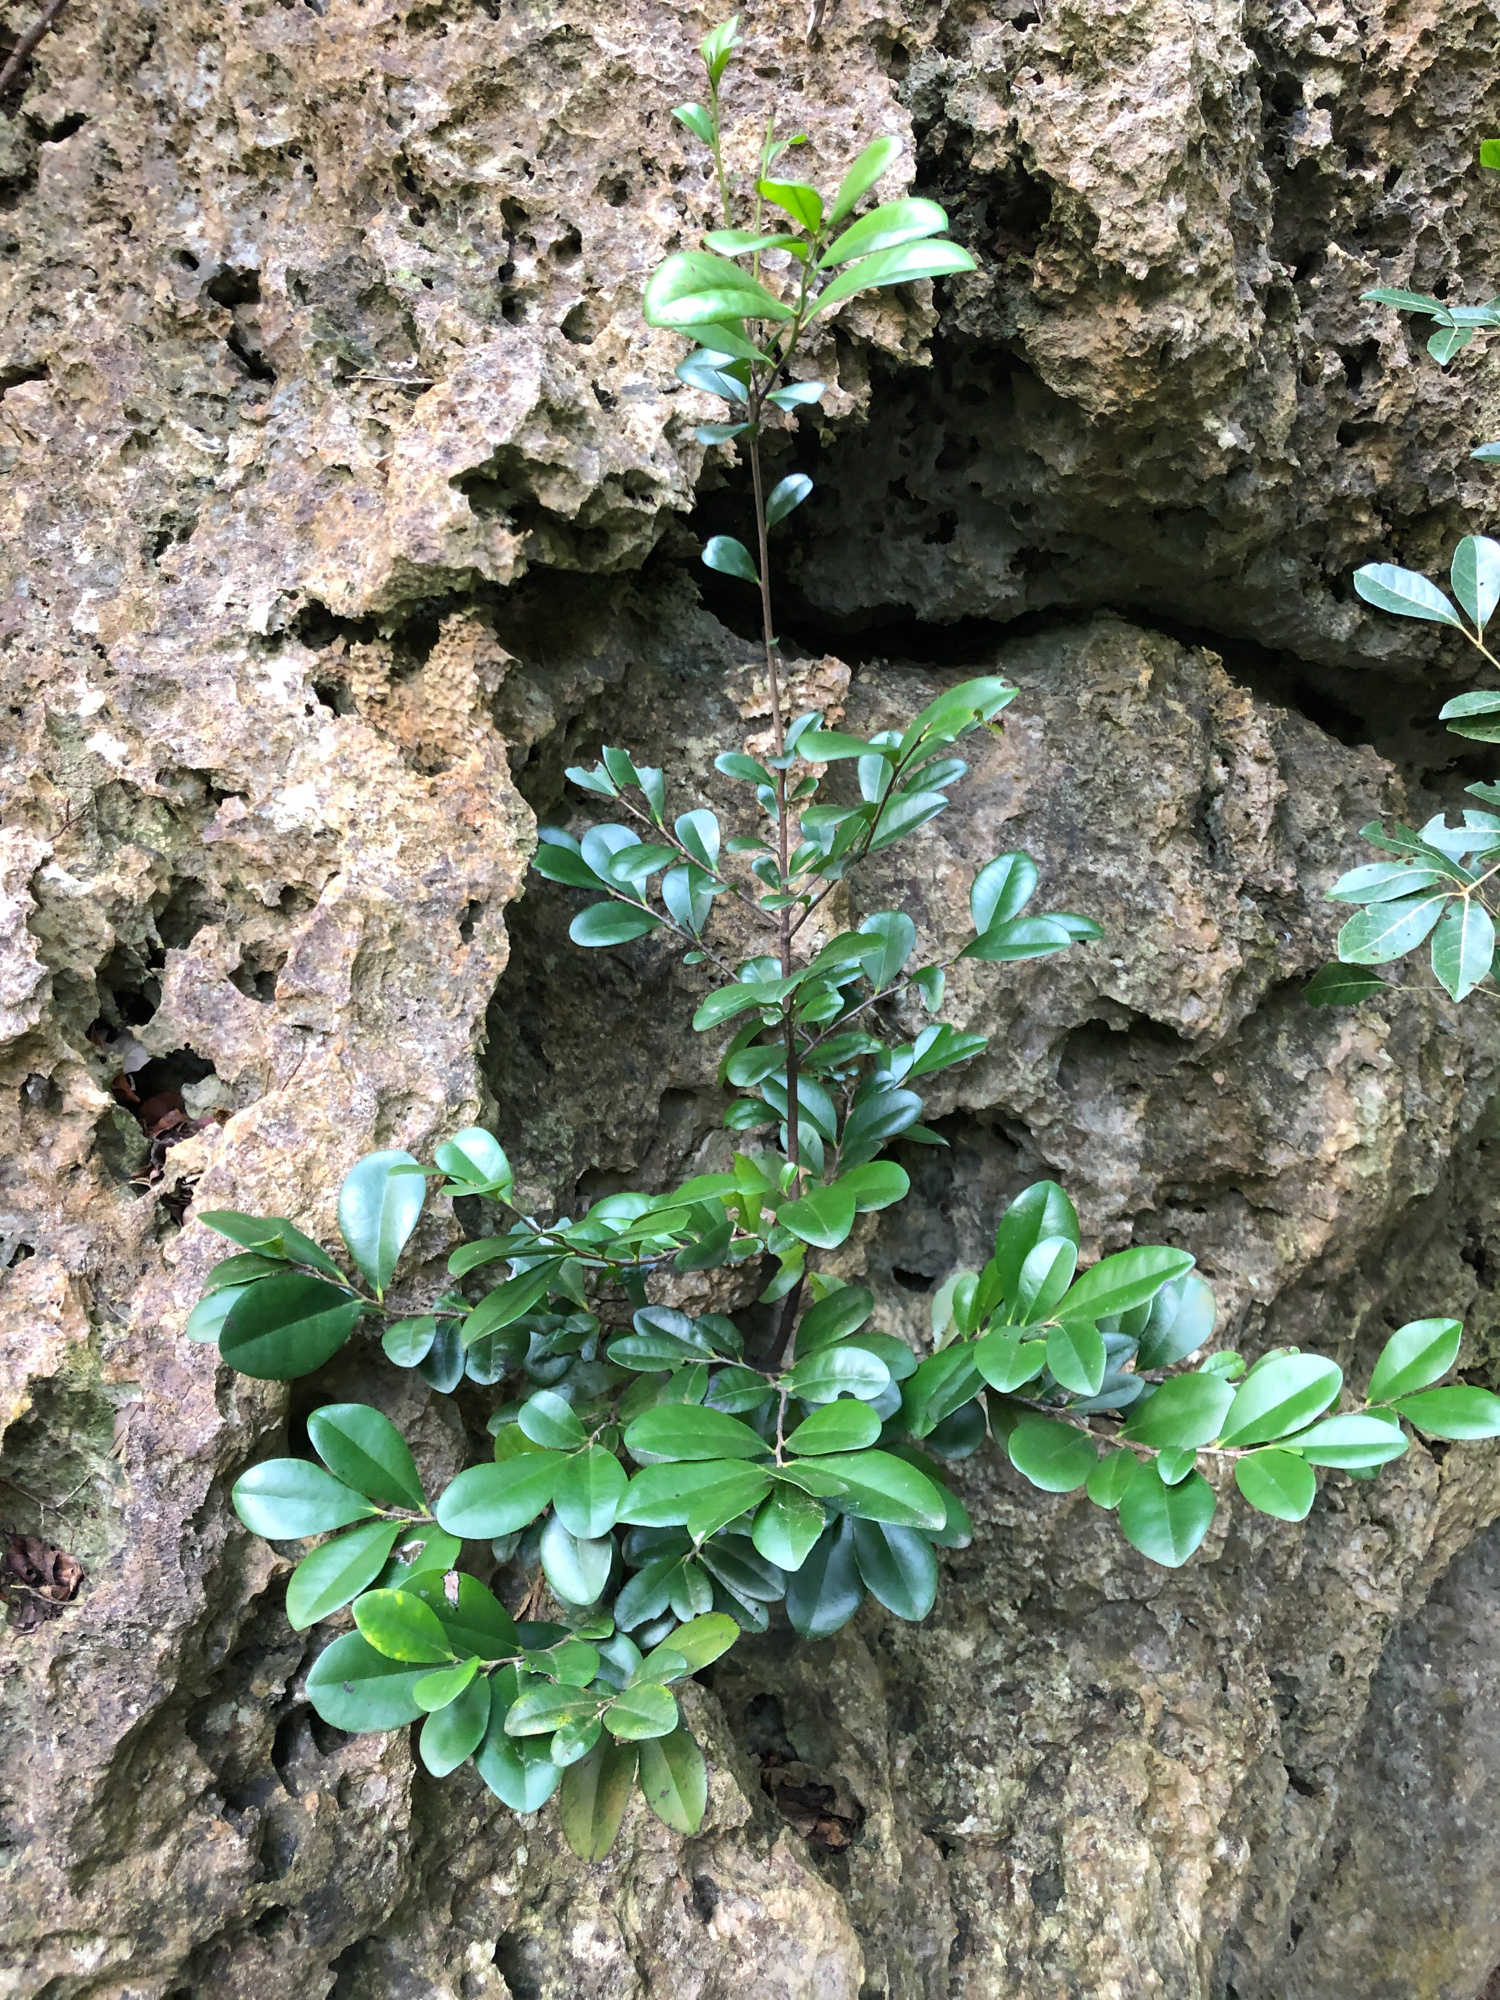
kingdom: Plantae
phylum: Tracheophyta
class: Magnoliopsida
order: Ericales
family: Ebenaceae
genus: Diospyros
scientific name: Diospyros ferrea
